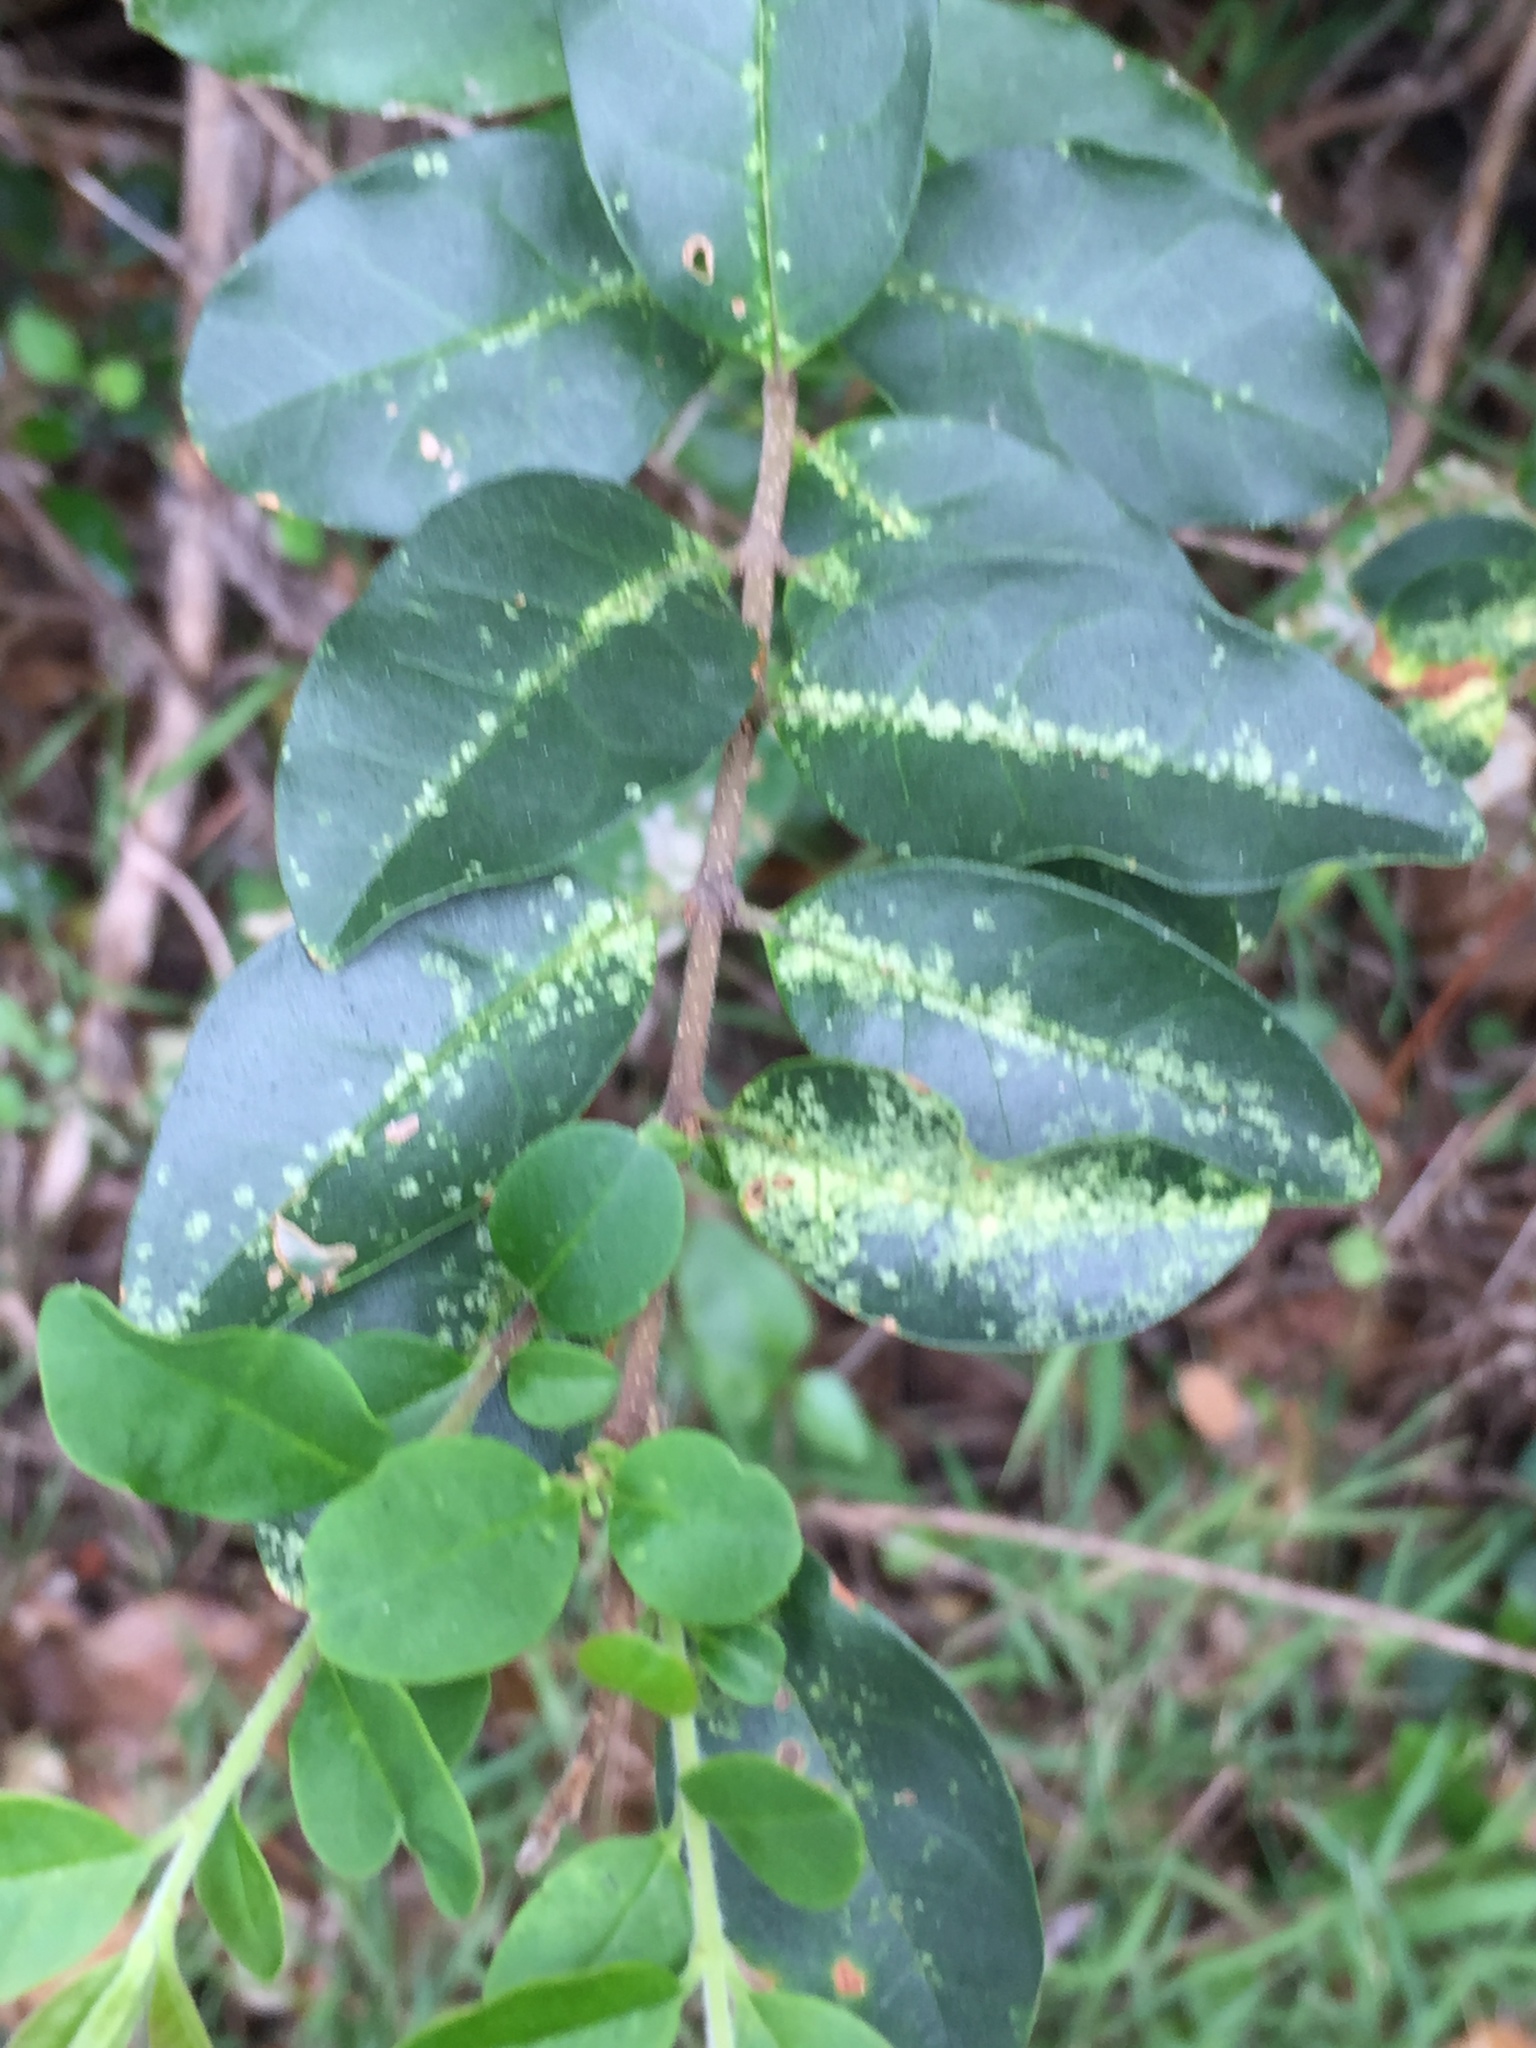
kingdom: Animalia
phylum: Arthropoda
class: Insecta
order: Hemiptera
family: Tingidae
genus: Leptoypha
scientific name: Leptoypha hospita
